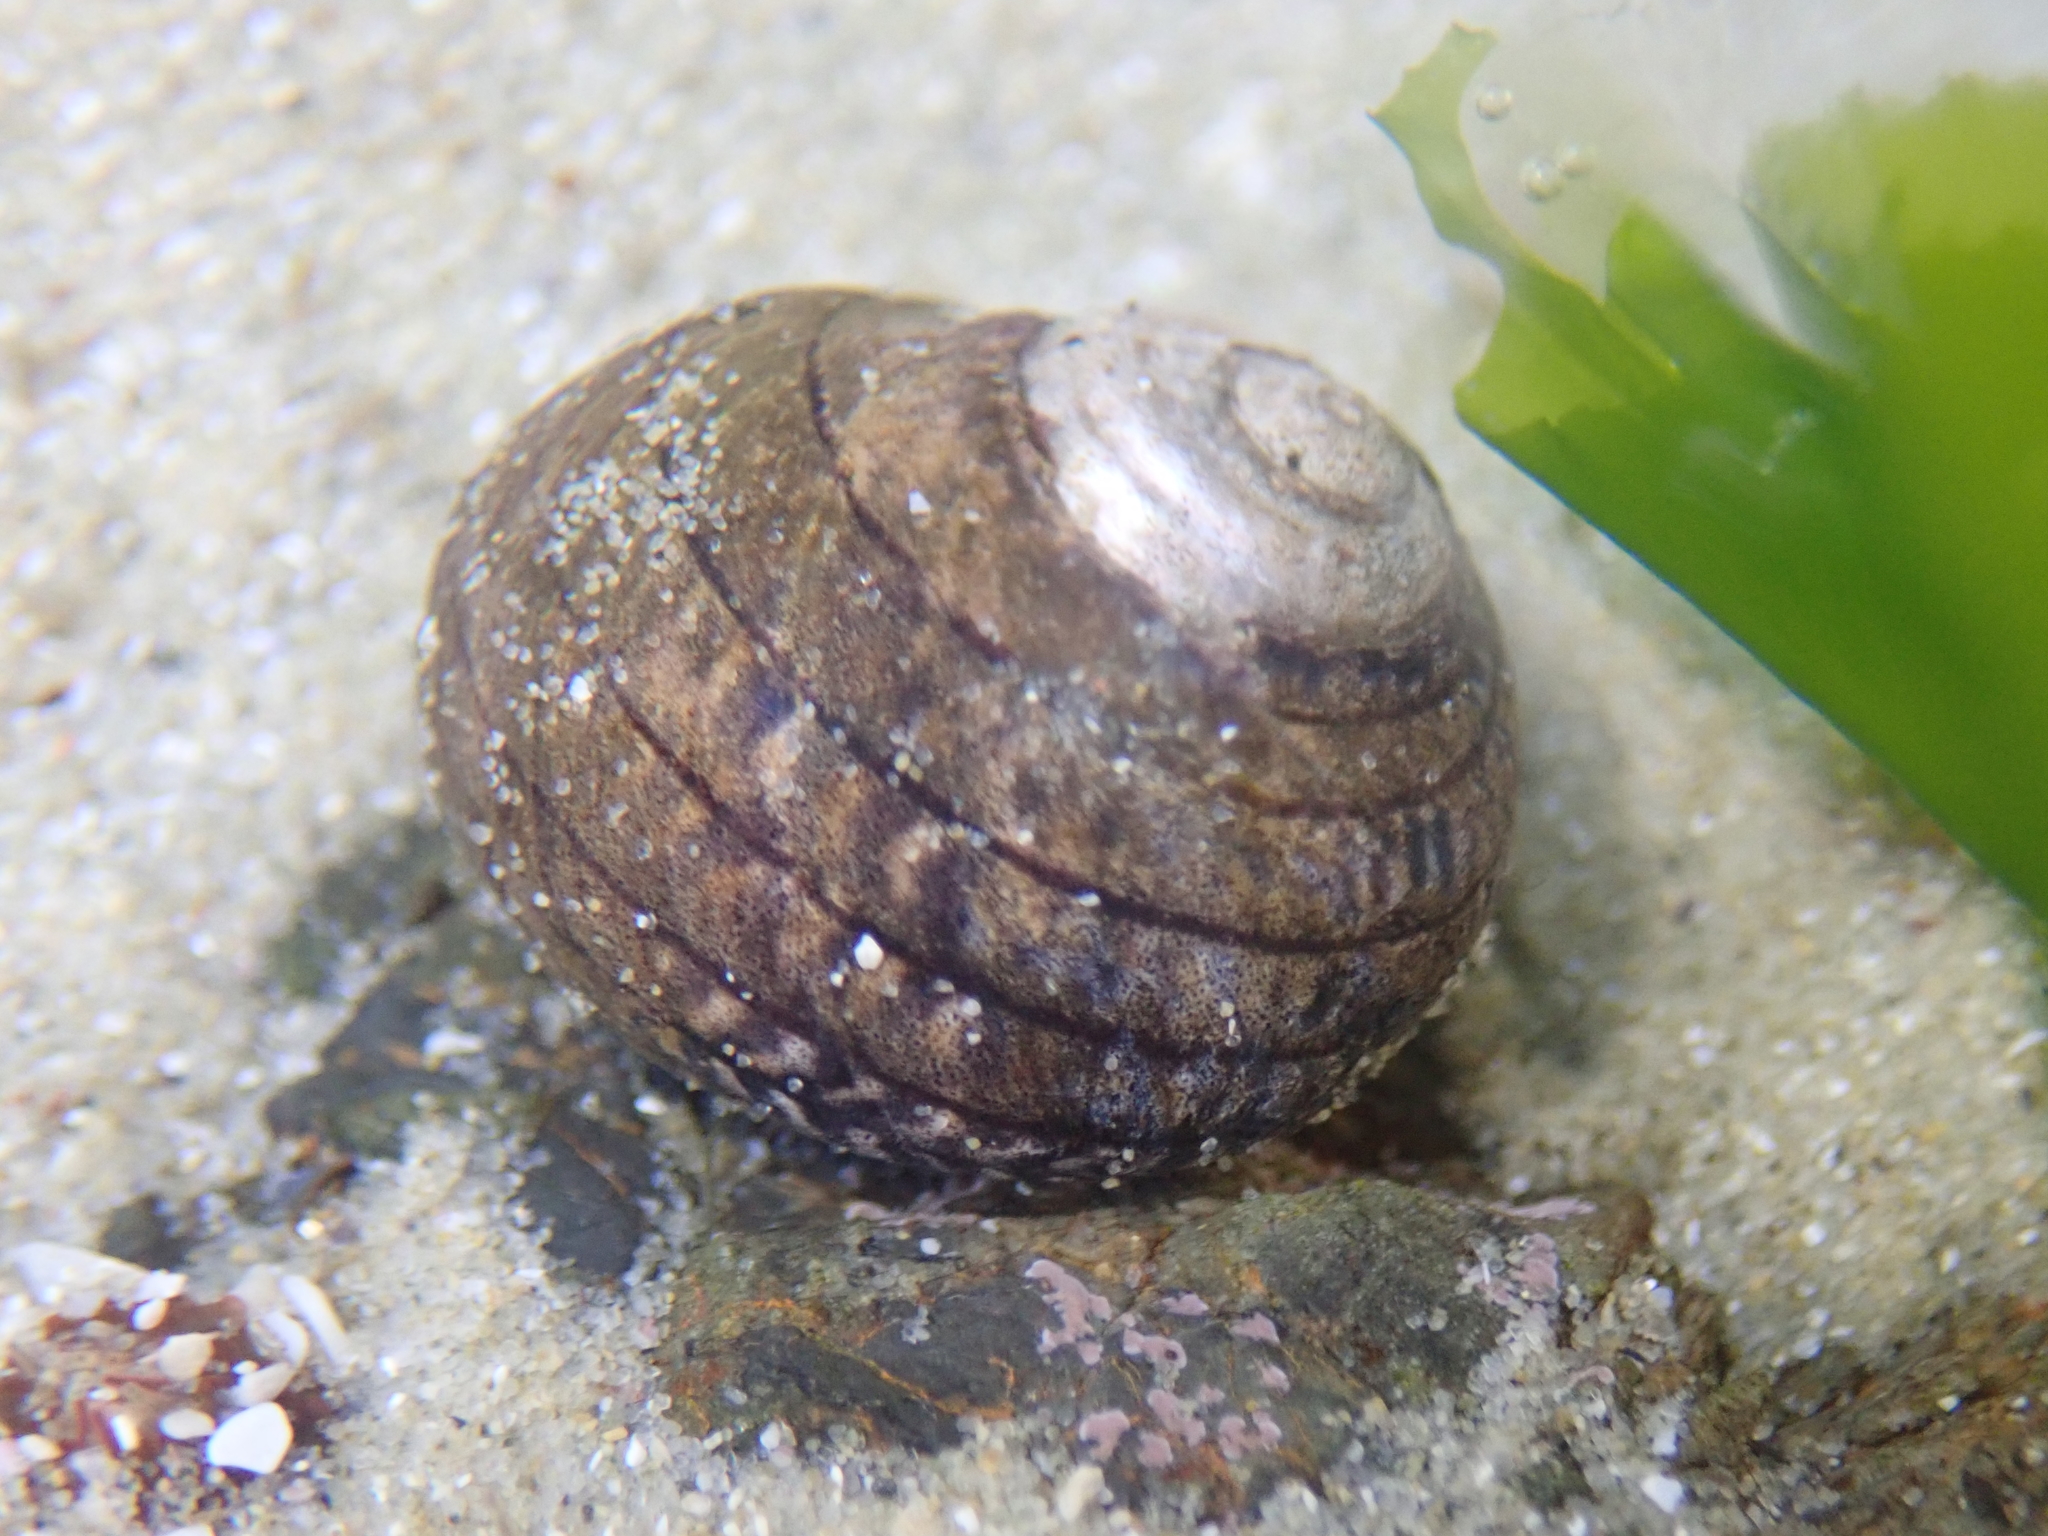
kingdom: Animalia
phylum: Mollusca
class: Gastropoda
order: Trochida
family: Trochidae
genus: Diloma
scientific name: Diloma aethiops
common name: Scorched monodont
